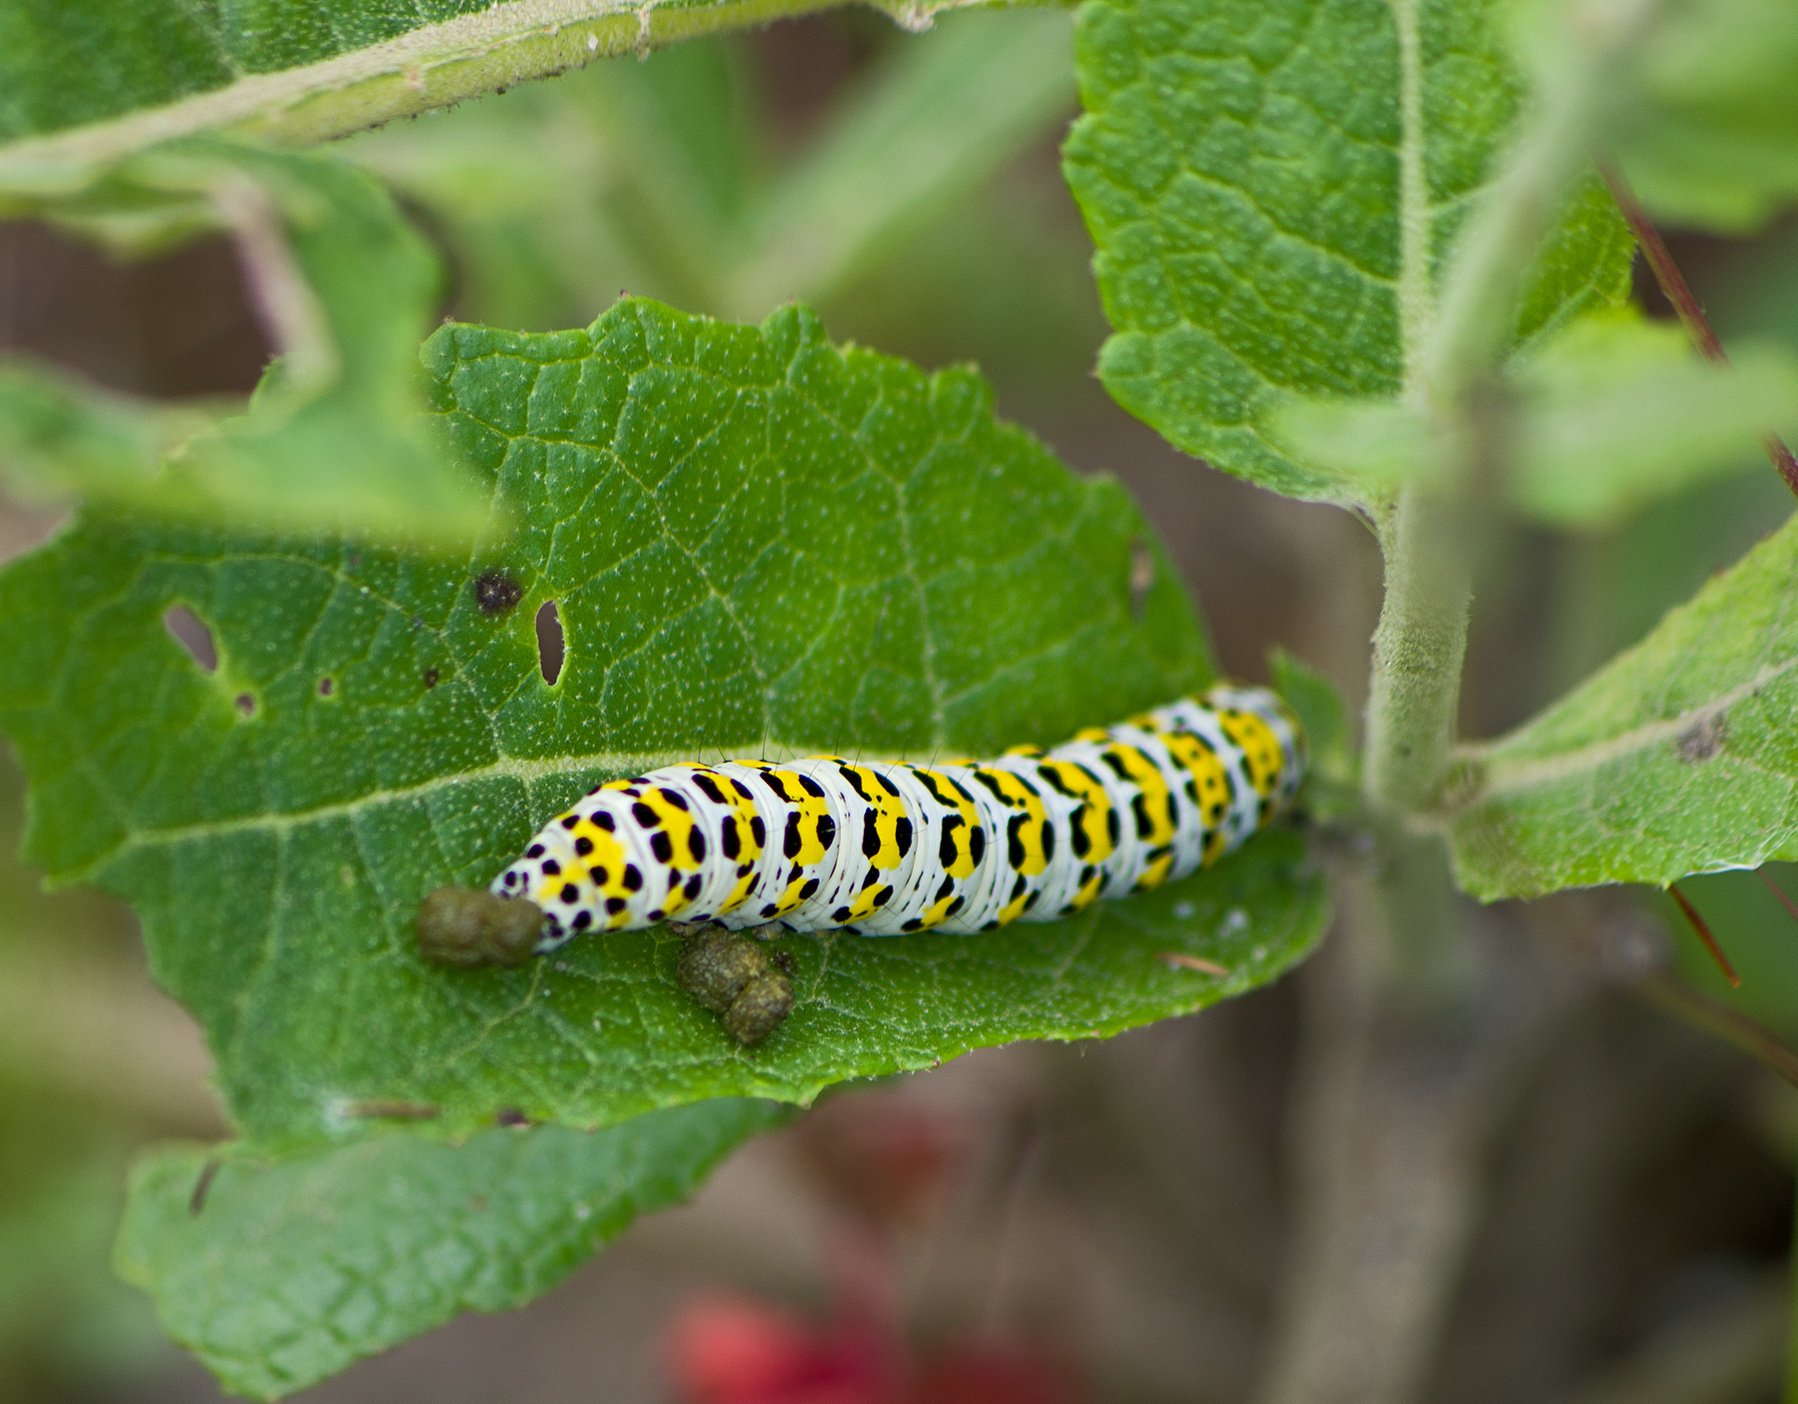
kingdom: Animalia
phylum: Arthropoda
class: Insecta
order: Lepidoptera
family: Noctuidae
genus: Cucullia
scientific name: Cucullia verbasci
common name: Mullein
